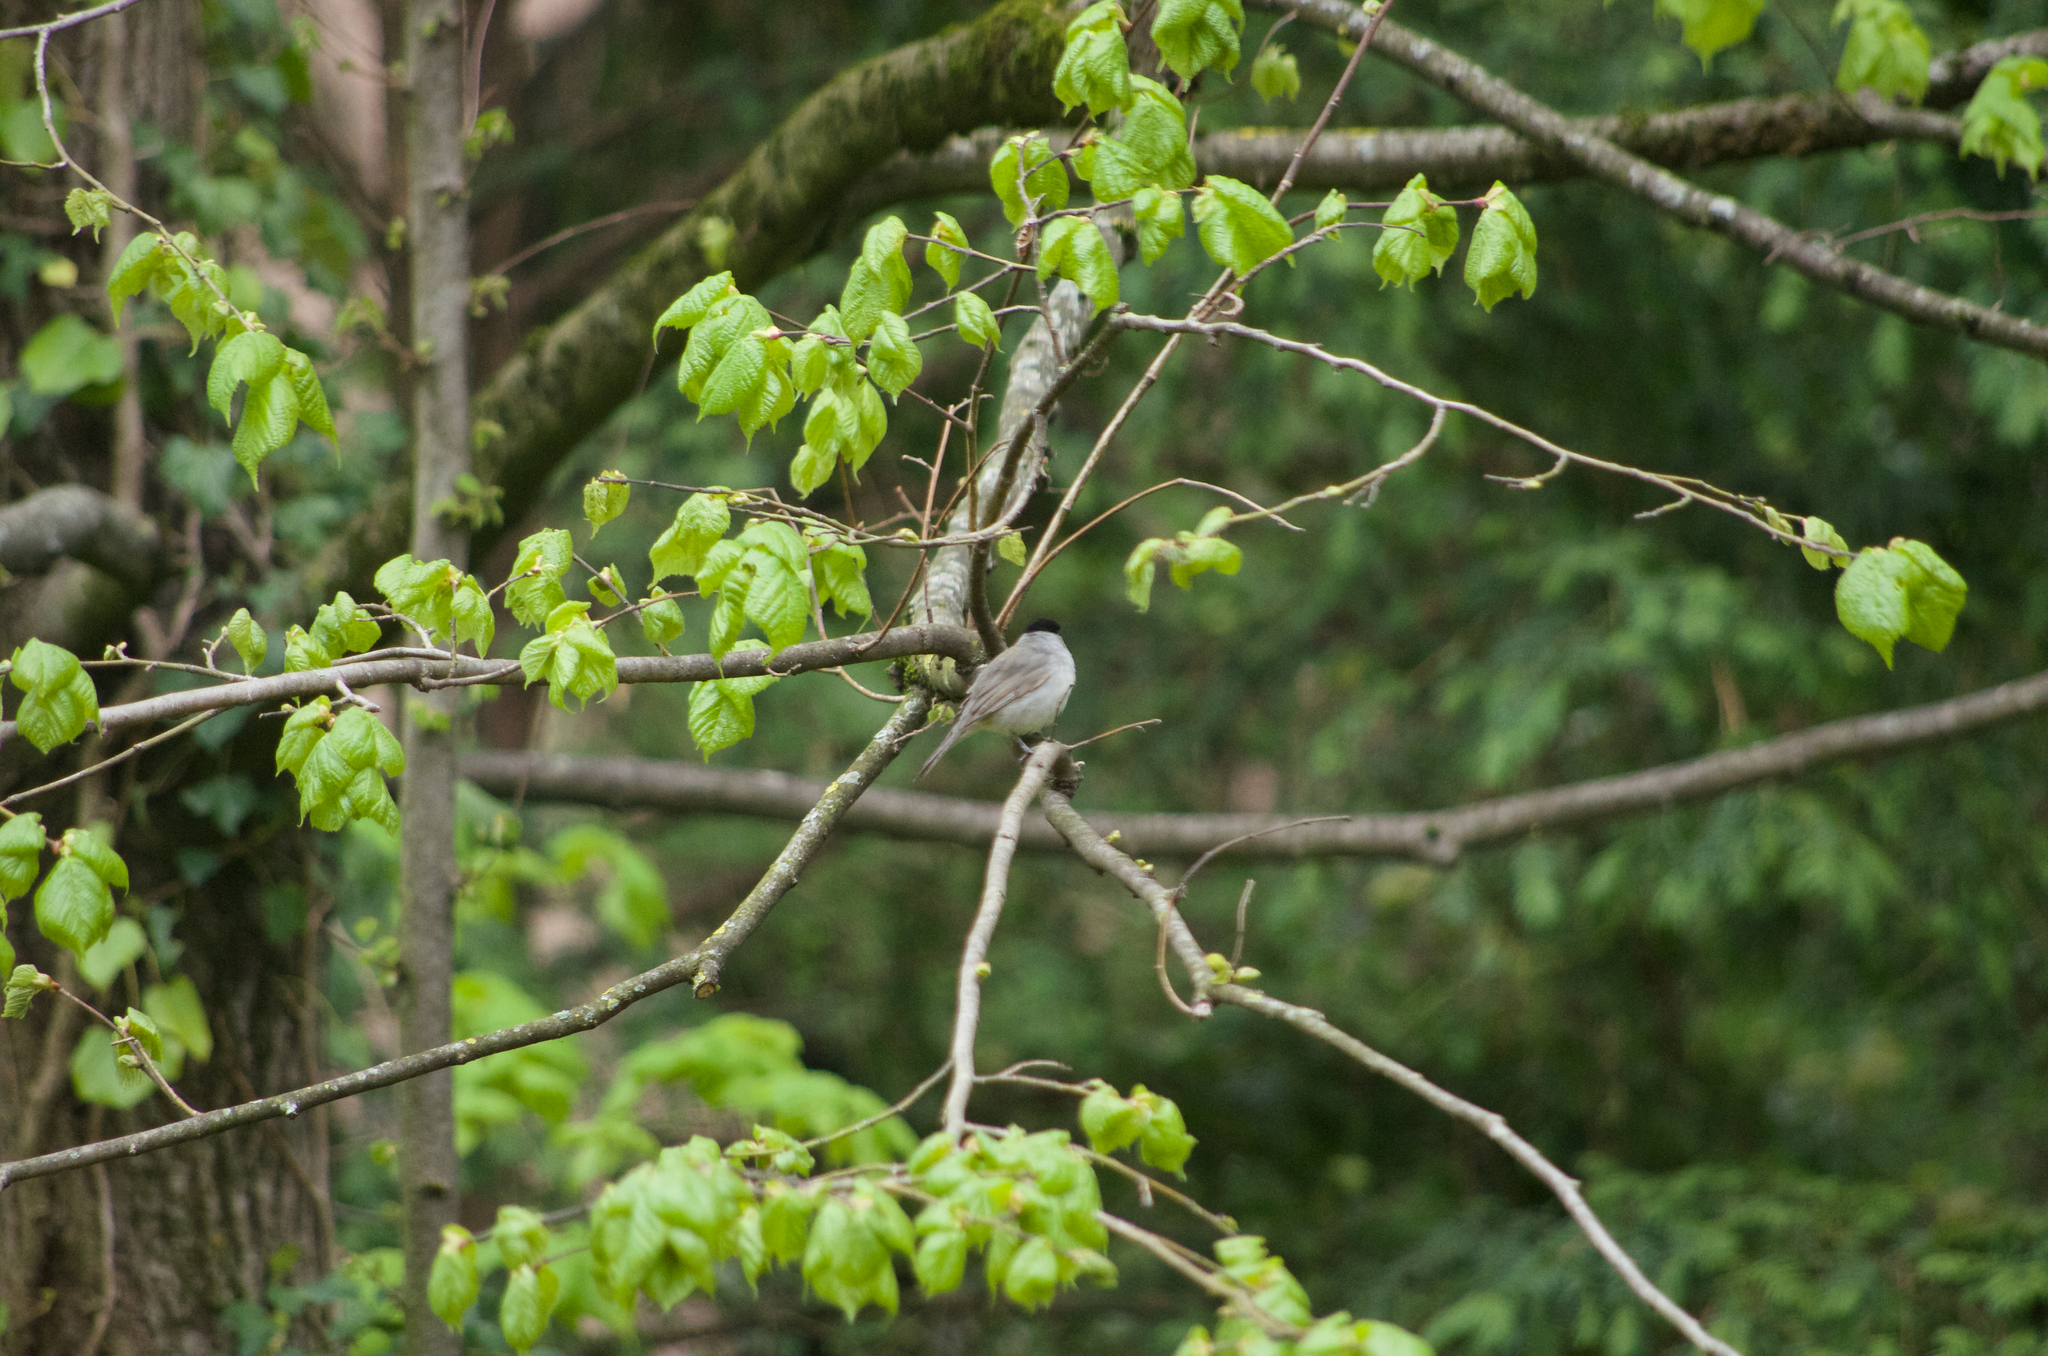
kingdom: Animalia
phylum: Chordata
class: Aves
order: Passeriformes
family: Sylviidae
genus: Sylvia
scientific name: Sylvia atricapilla
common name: Eurasian blackcap
